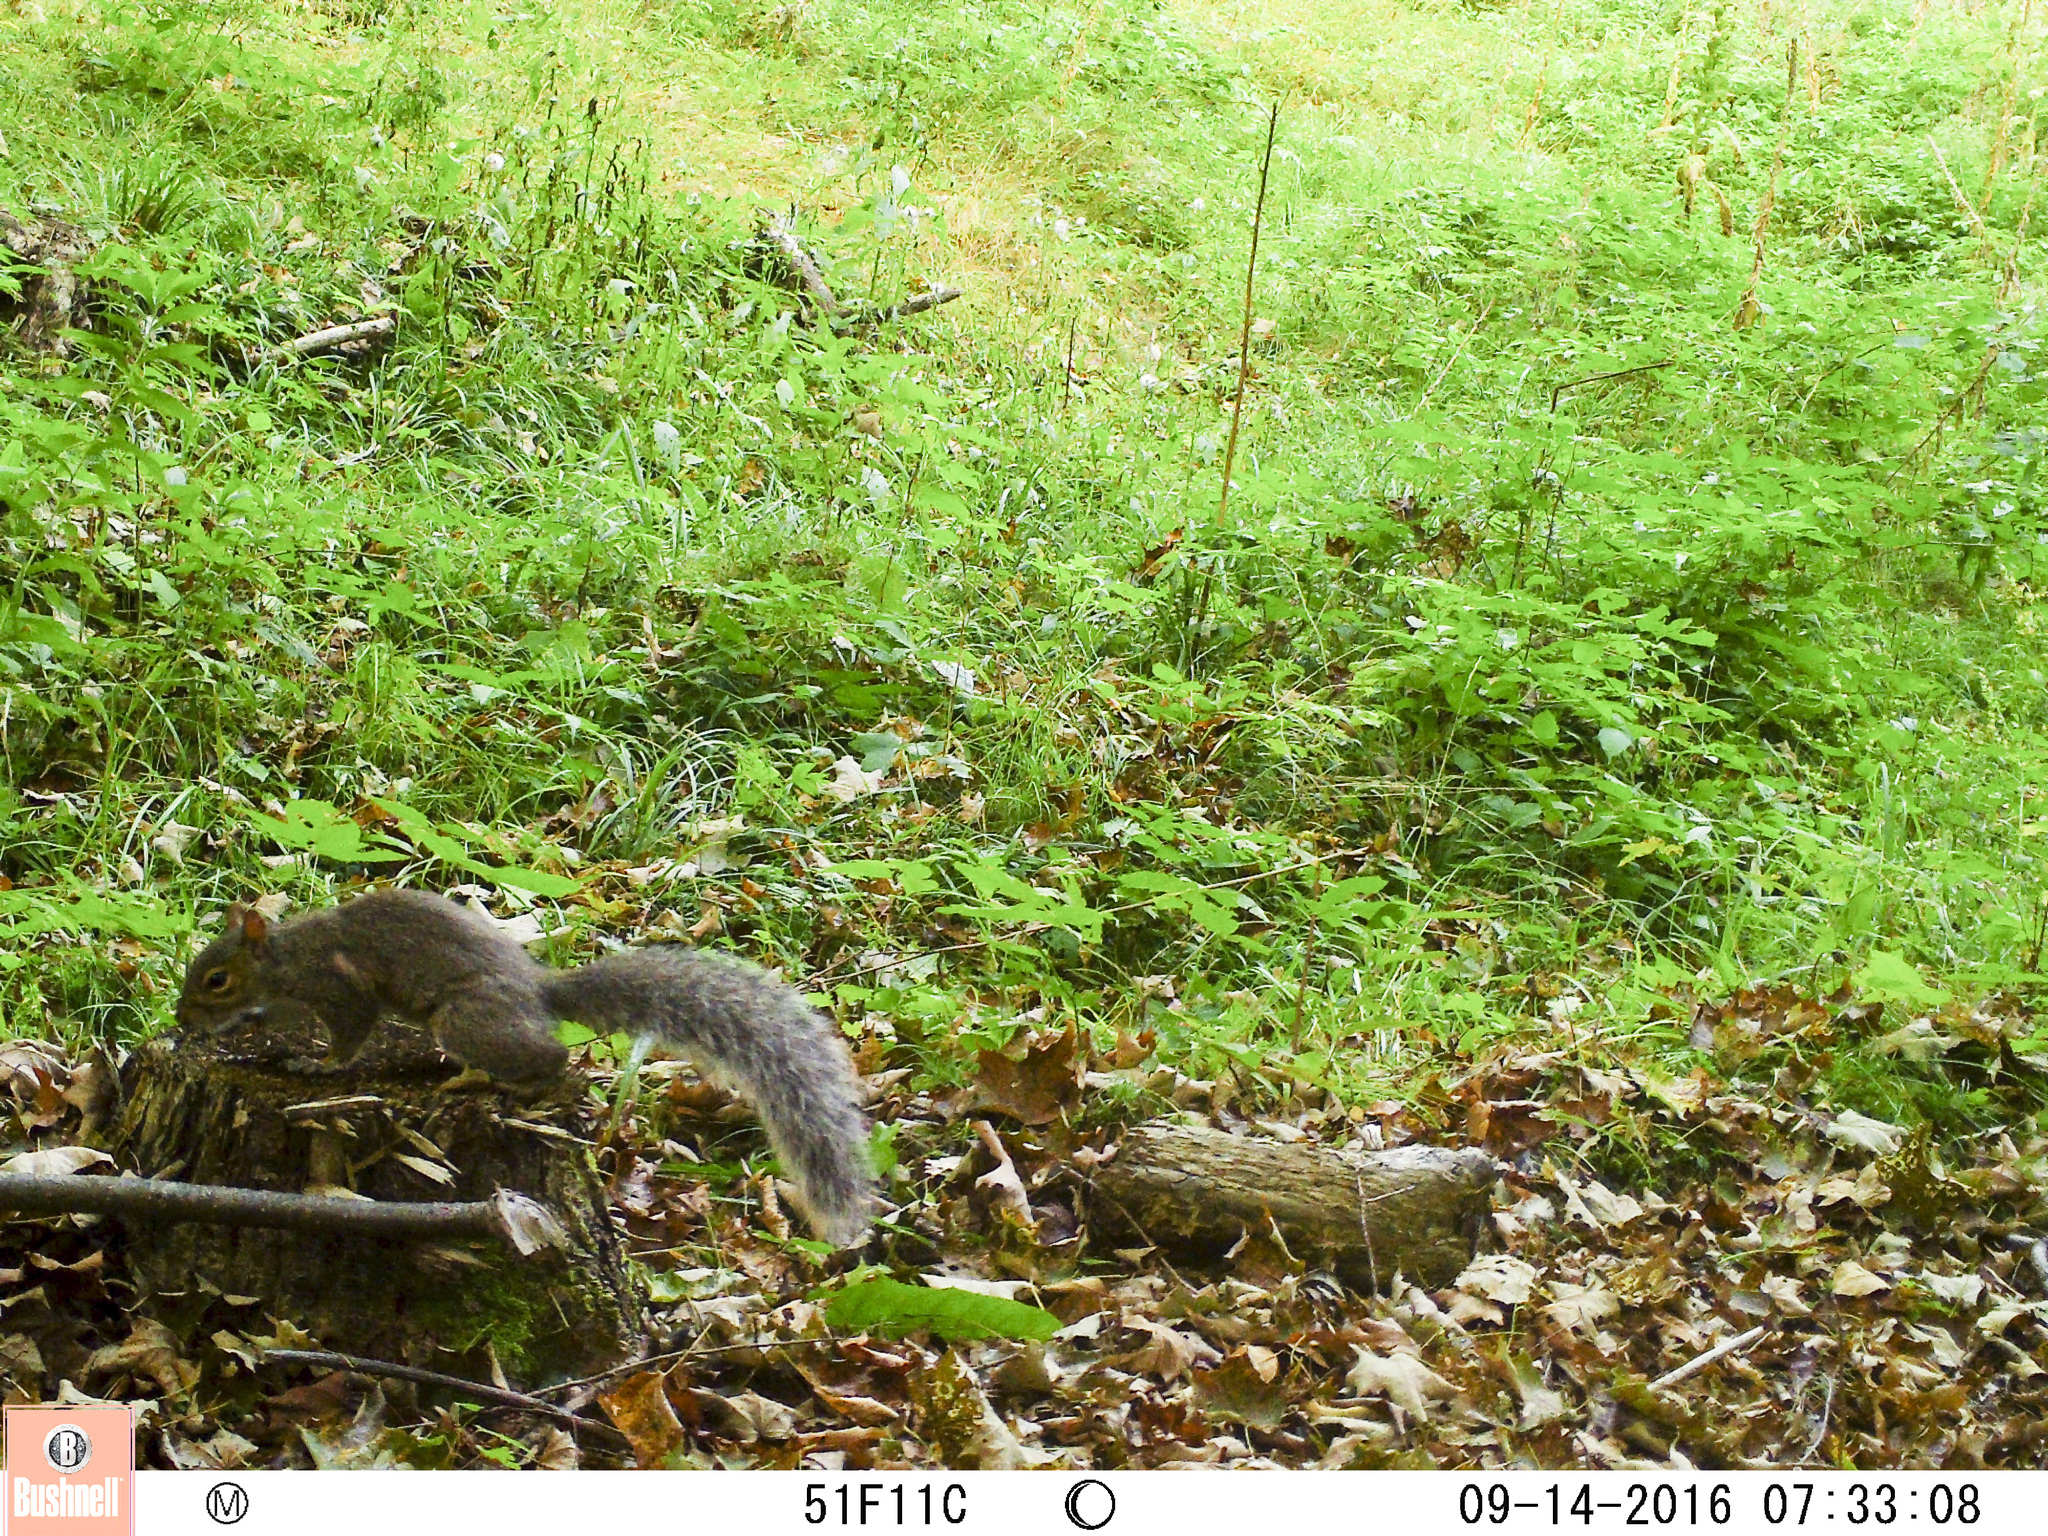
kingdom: Animalia
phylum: Chordata
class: Mammalia
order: Rodentia
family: Sciuridae
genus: Sciurus
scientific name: Sciurus carolinensis
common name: Eastern gray squirrel
